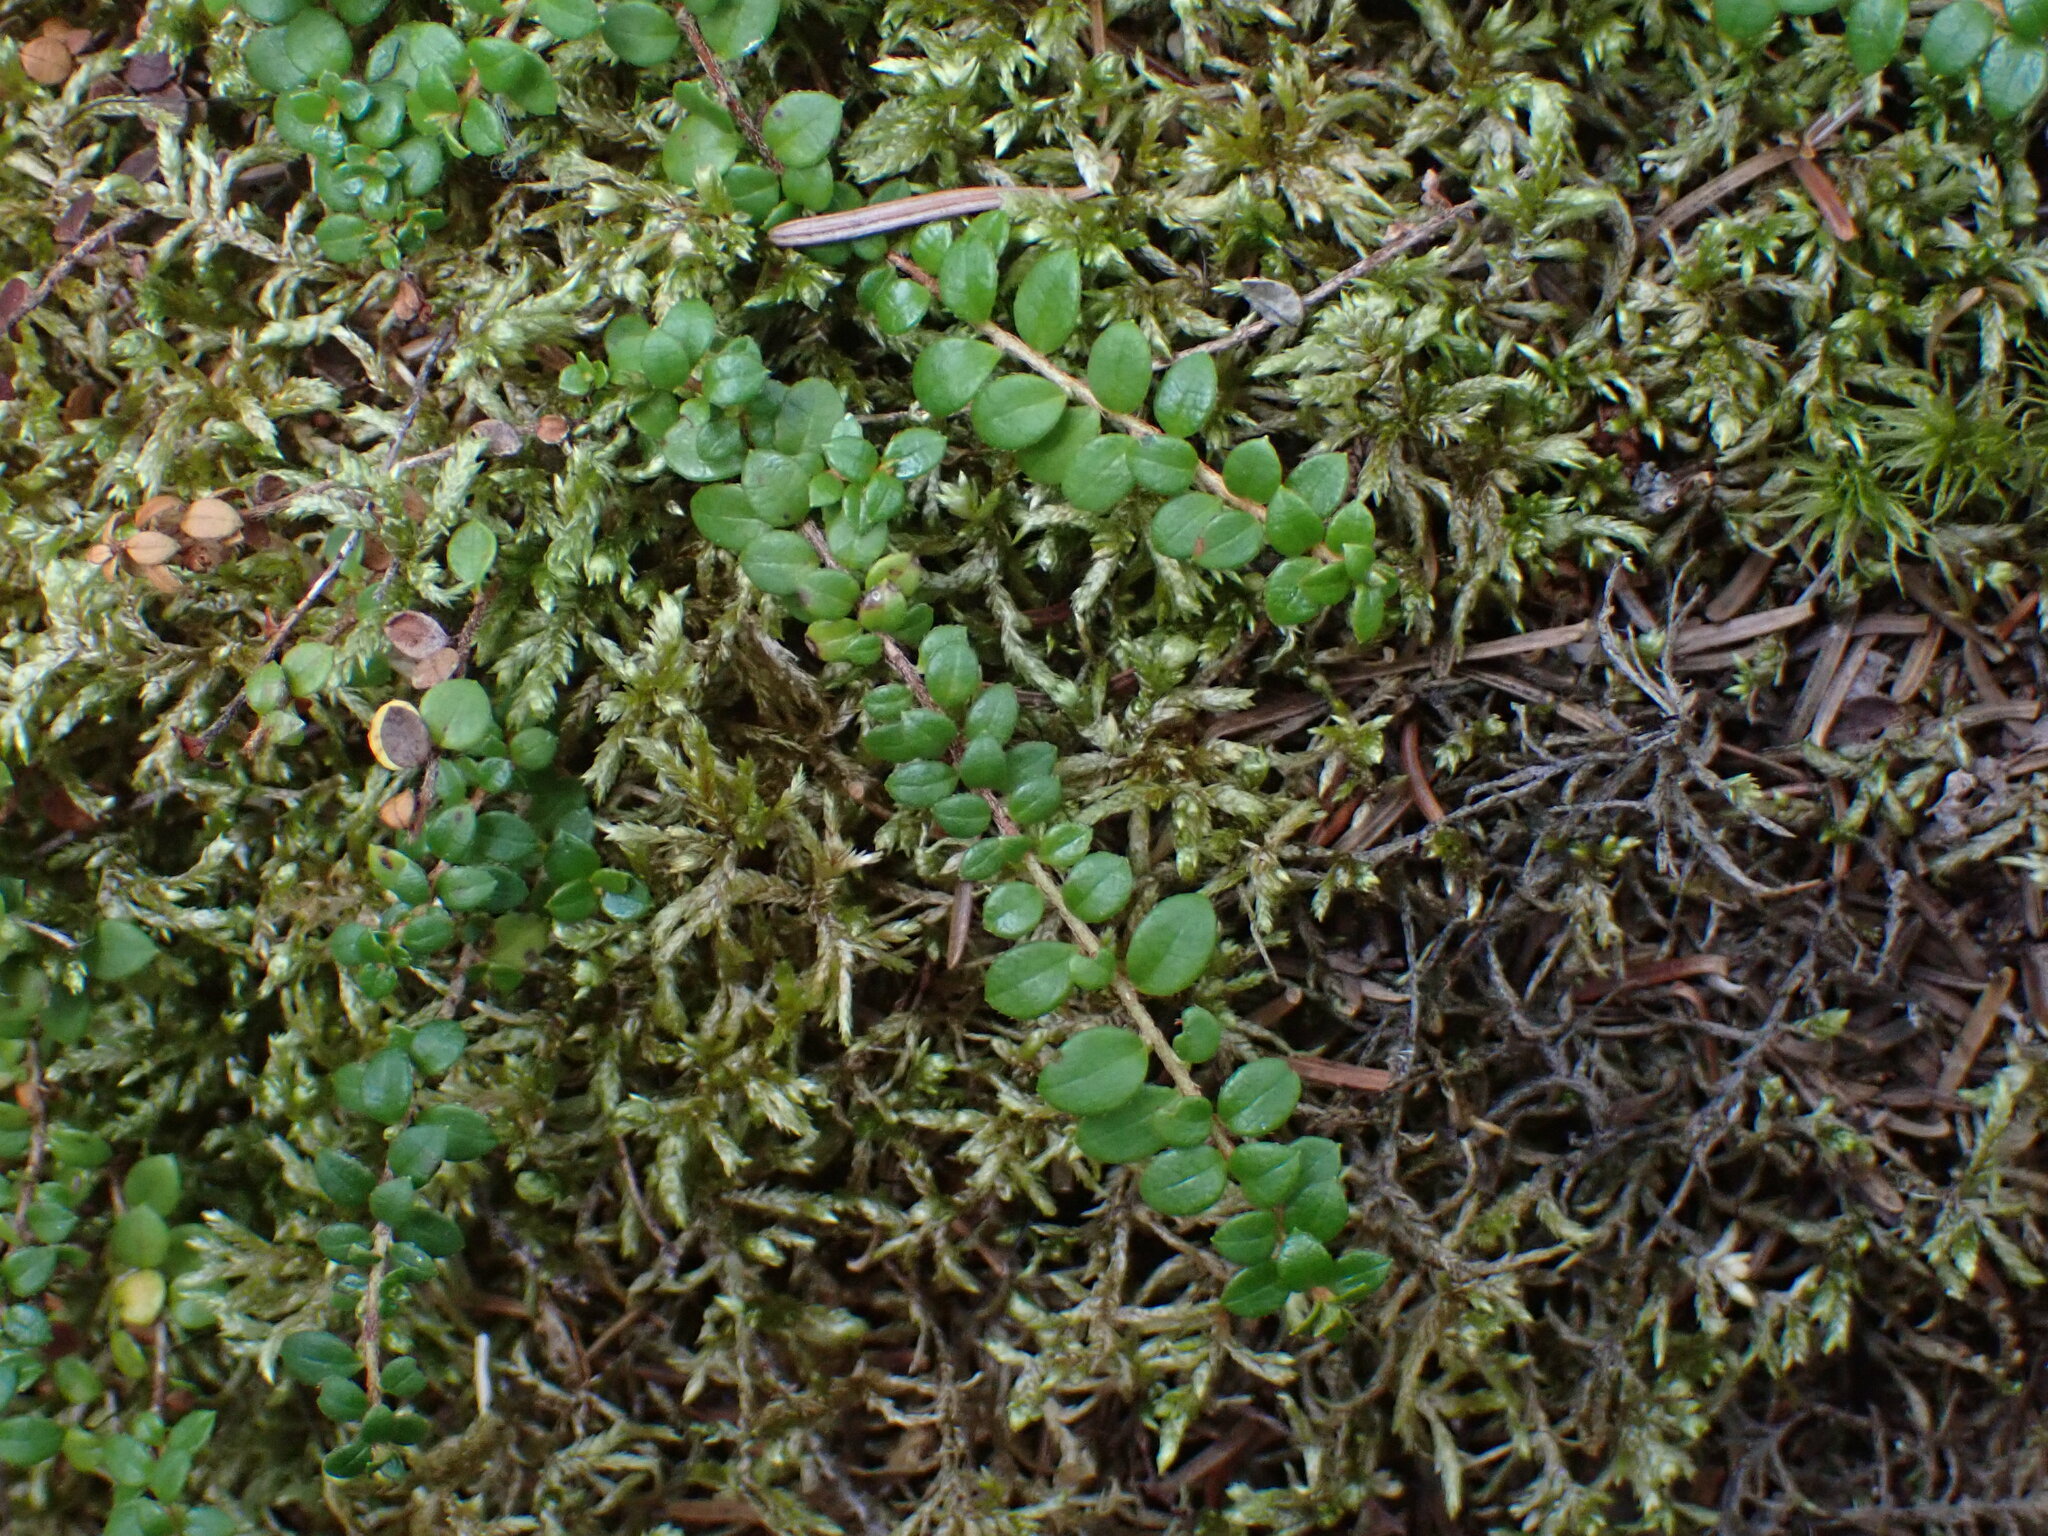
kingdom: Plantae
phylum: Tracheophyta
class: Magnoliopsida
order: Ericales
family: Ericaceae
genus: Gaultheria
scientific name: Gaultheria hispidula
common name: Cancer wintergreen
